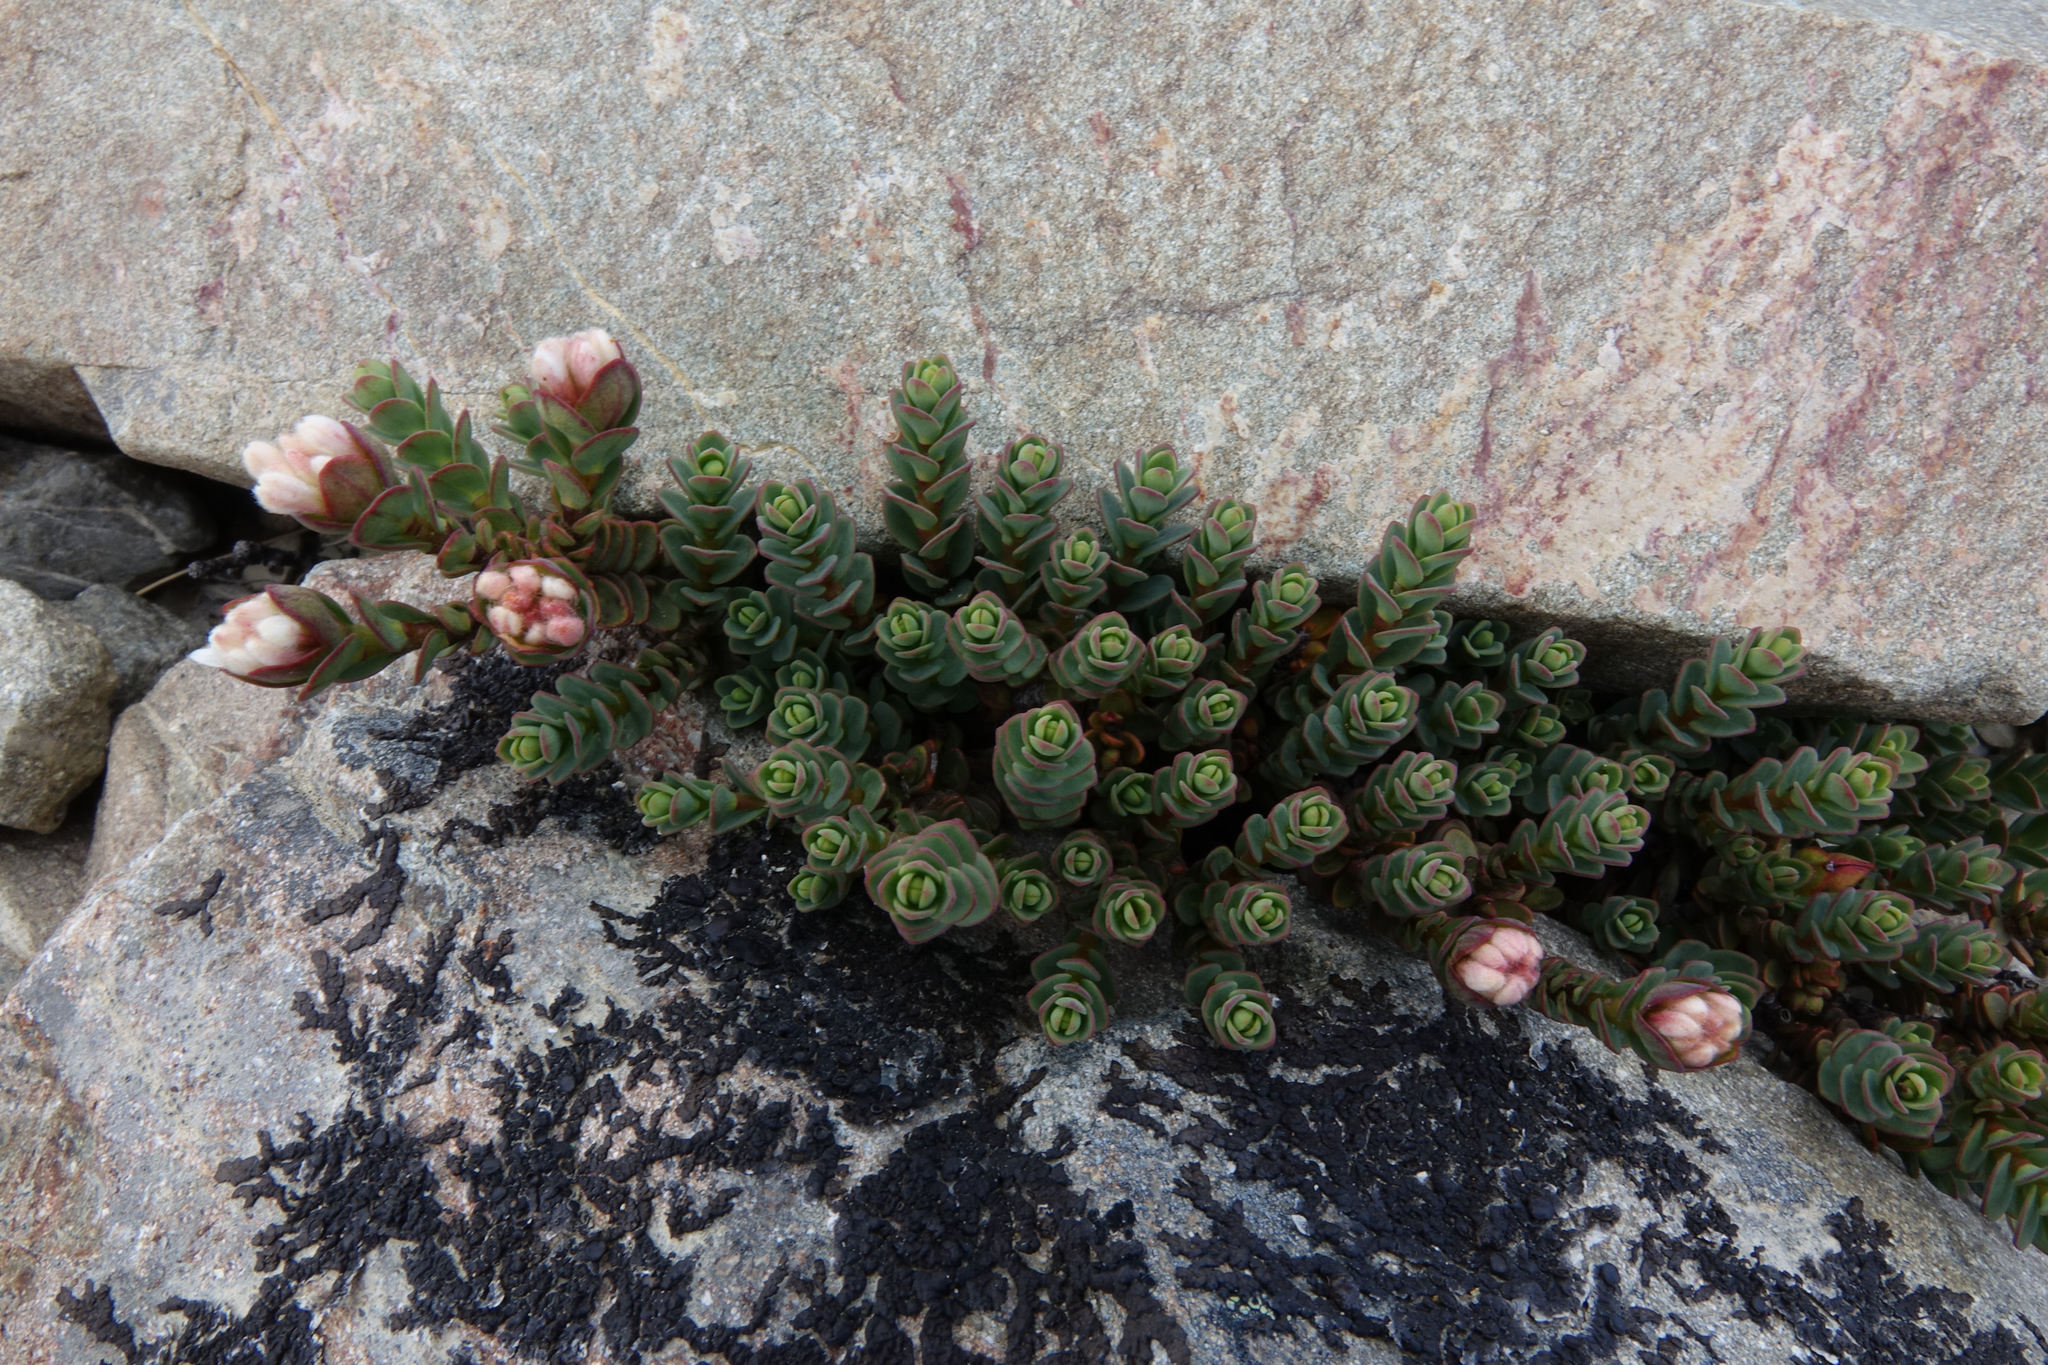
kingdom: Plantae
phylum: Tracheophyta
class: Magnoliopsida
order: Malvales
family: Thymelaeaceae
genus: Pimelea
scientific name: Pimelea traversii
